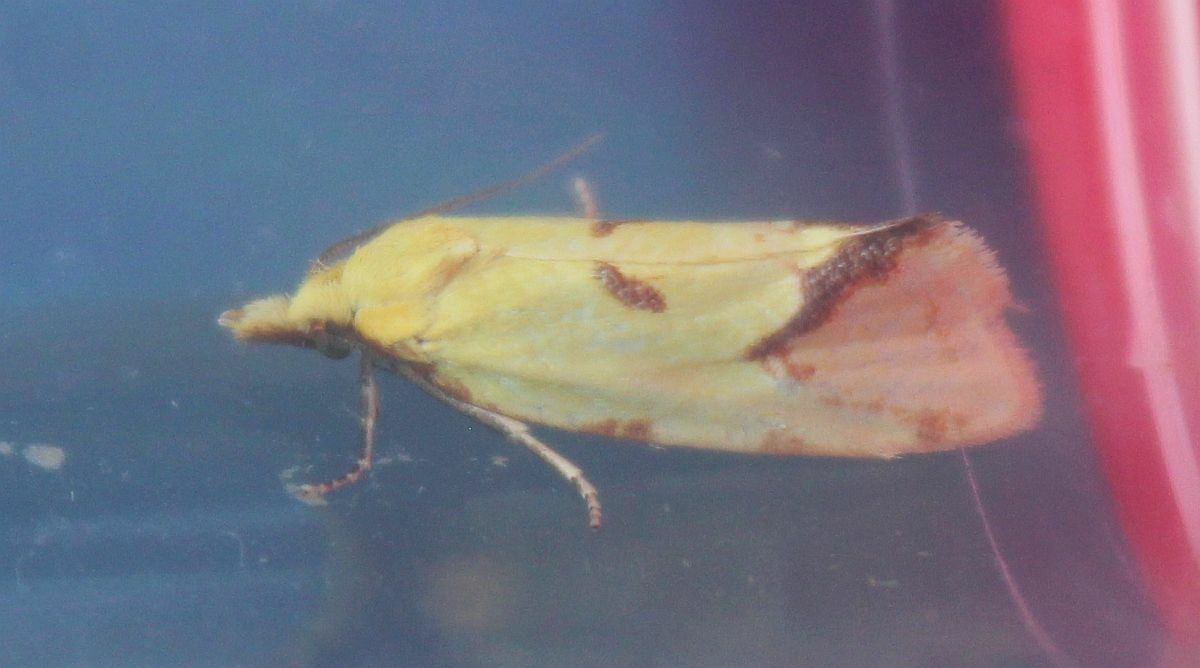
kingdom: Animalia
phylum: Arthropoda
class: Insecta
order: Lepidoptera
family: Tortricidae
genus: Agapeta
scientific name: Agapeta hamana
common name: Common yellow conch
